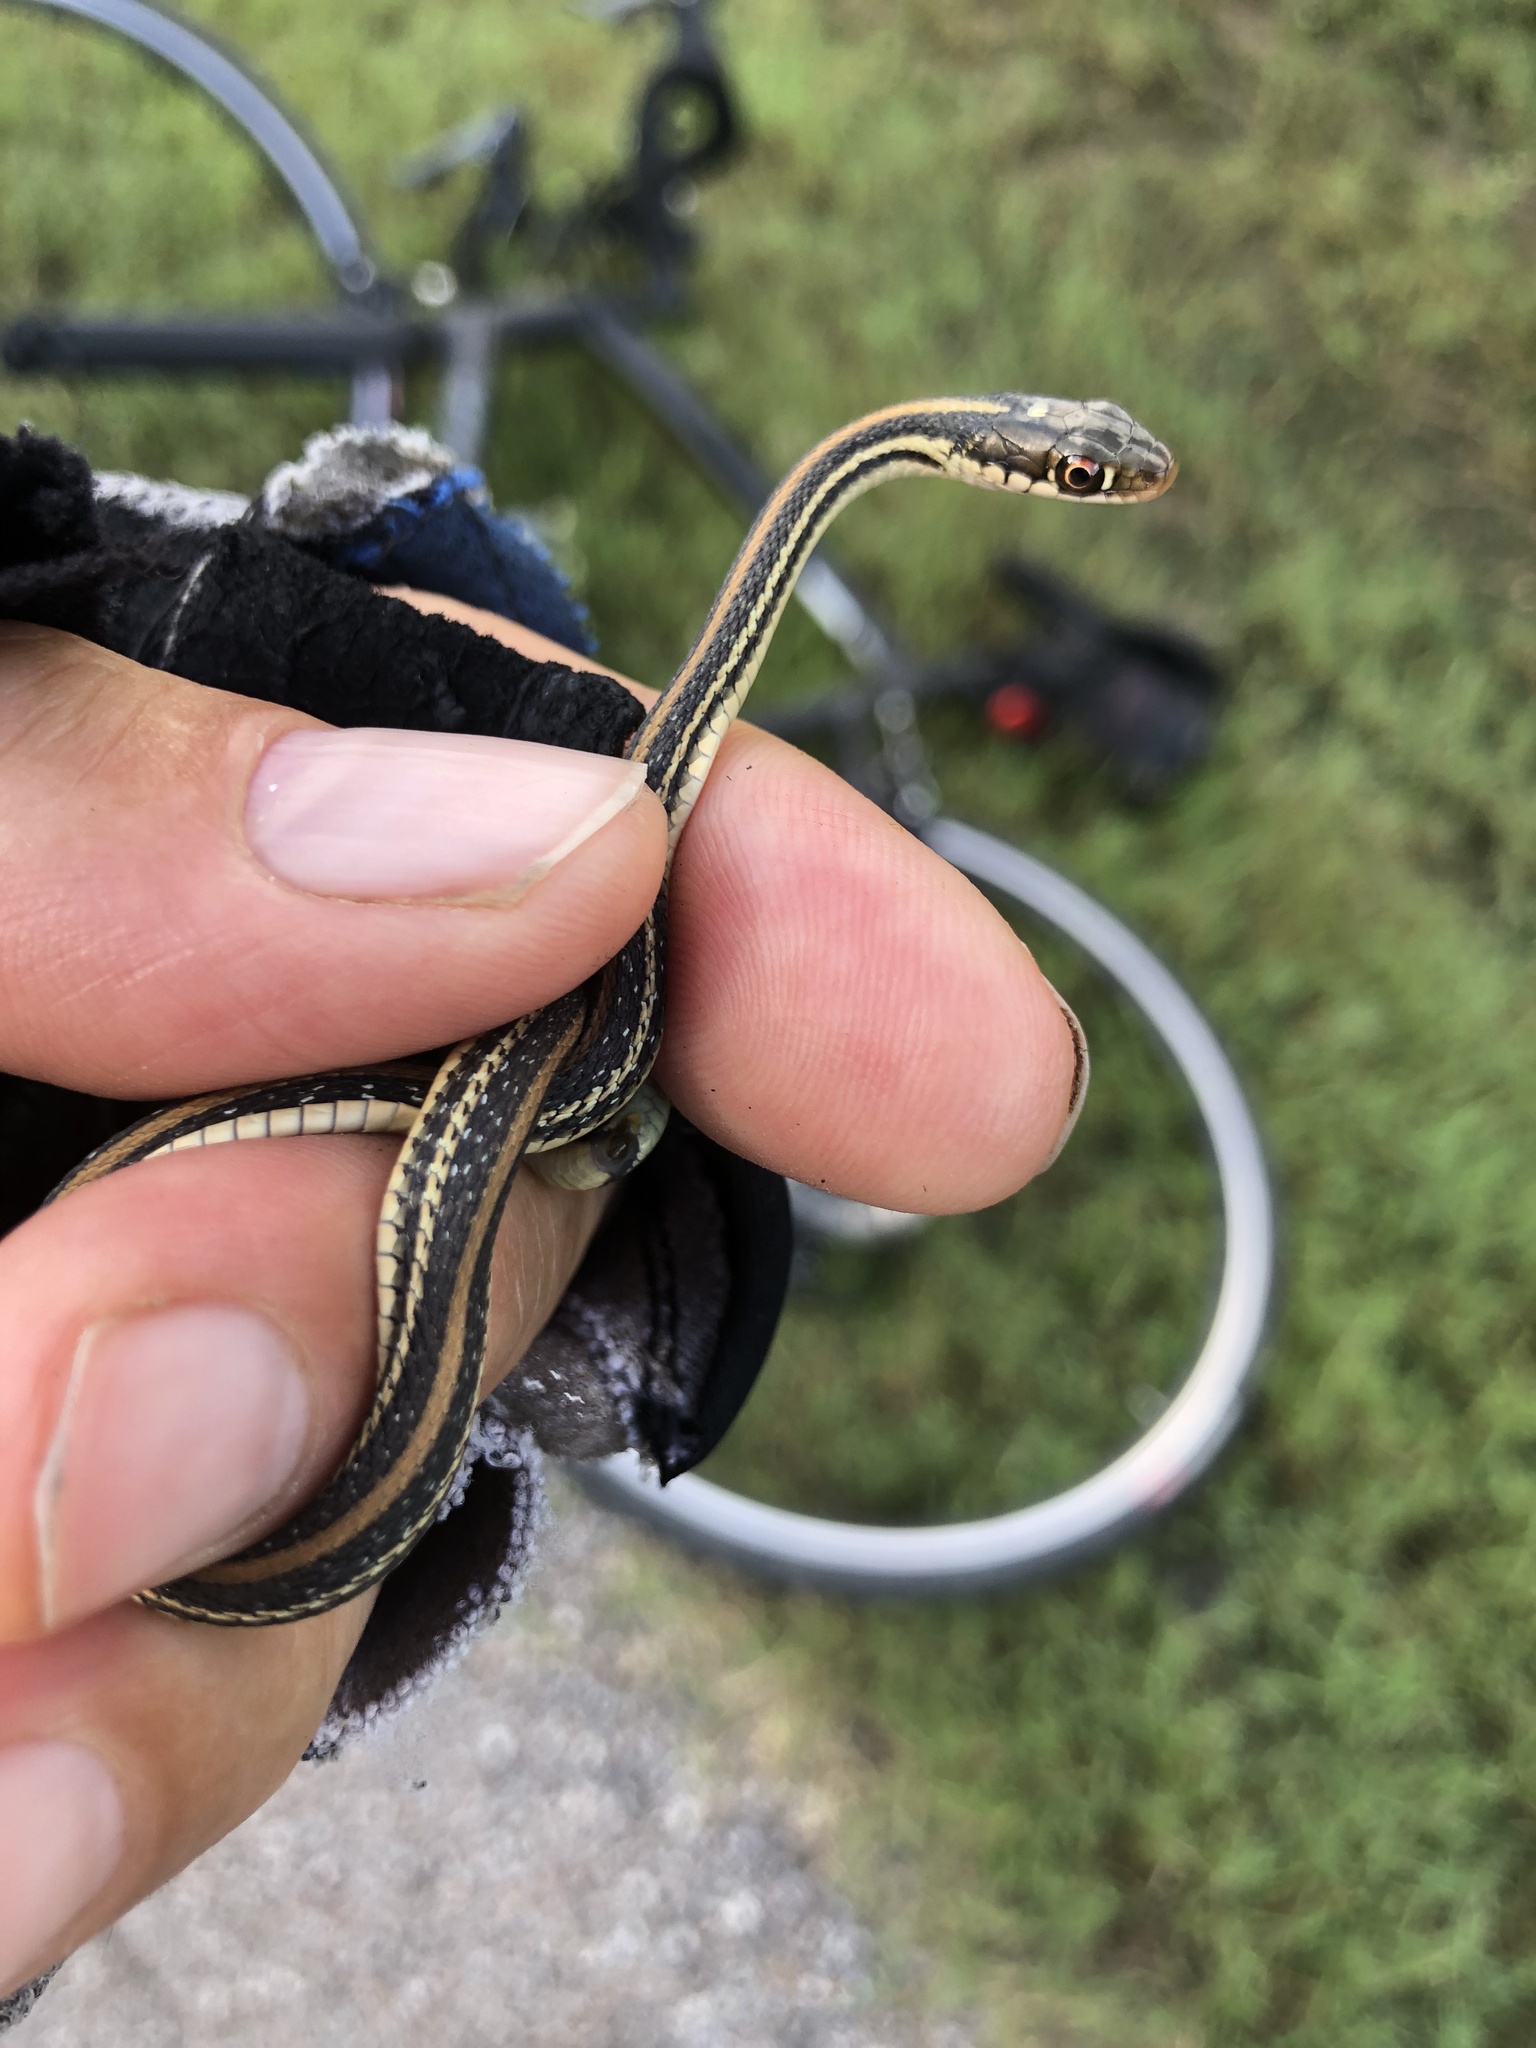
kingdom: Animalia
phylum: Chordata
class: Squamata
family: Colubridae
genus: Thamnophis
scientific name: Thamnophis proximus
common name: Western ribbon snake
